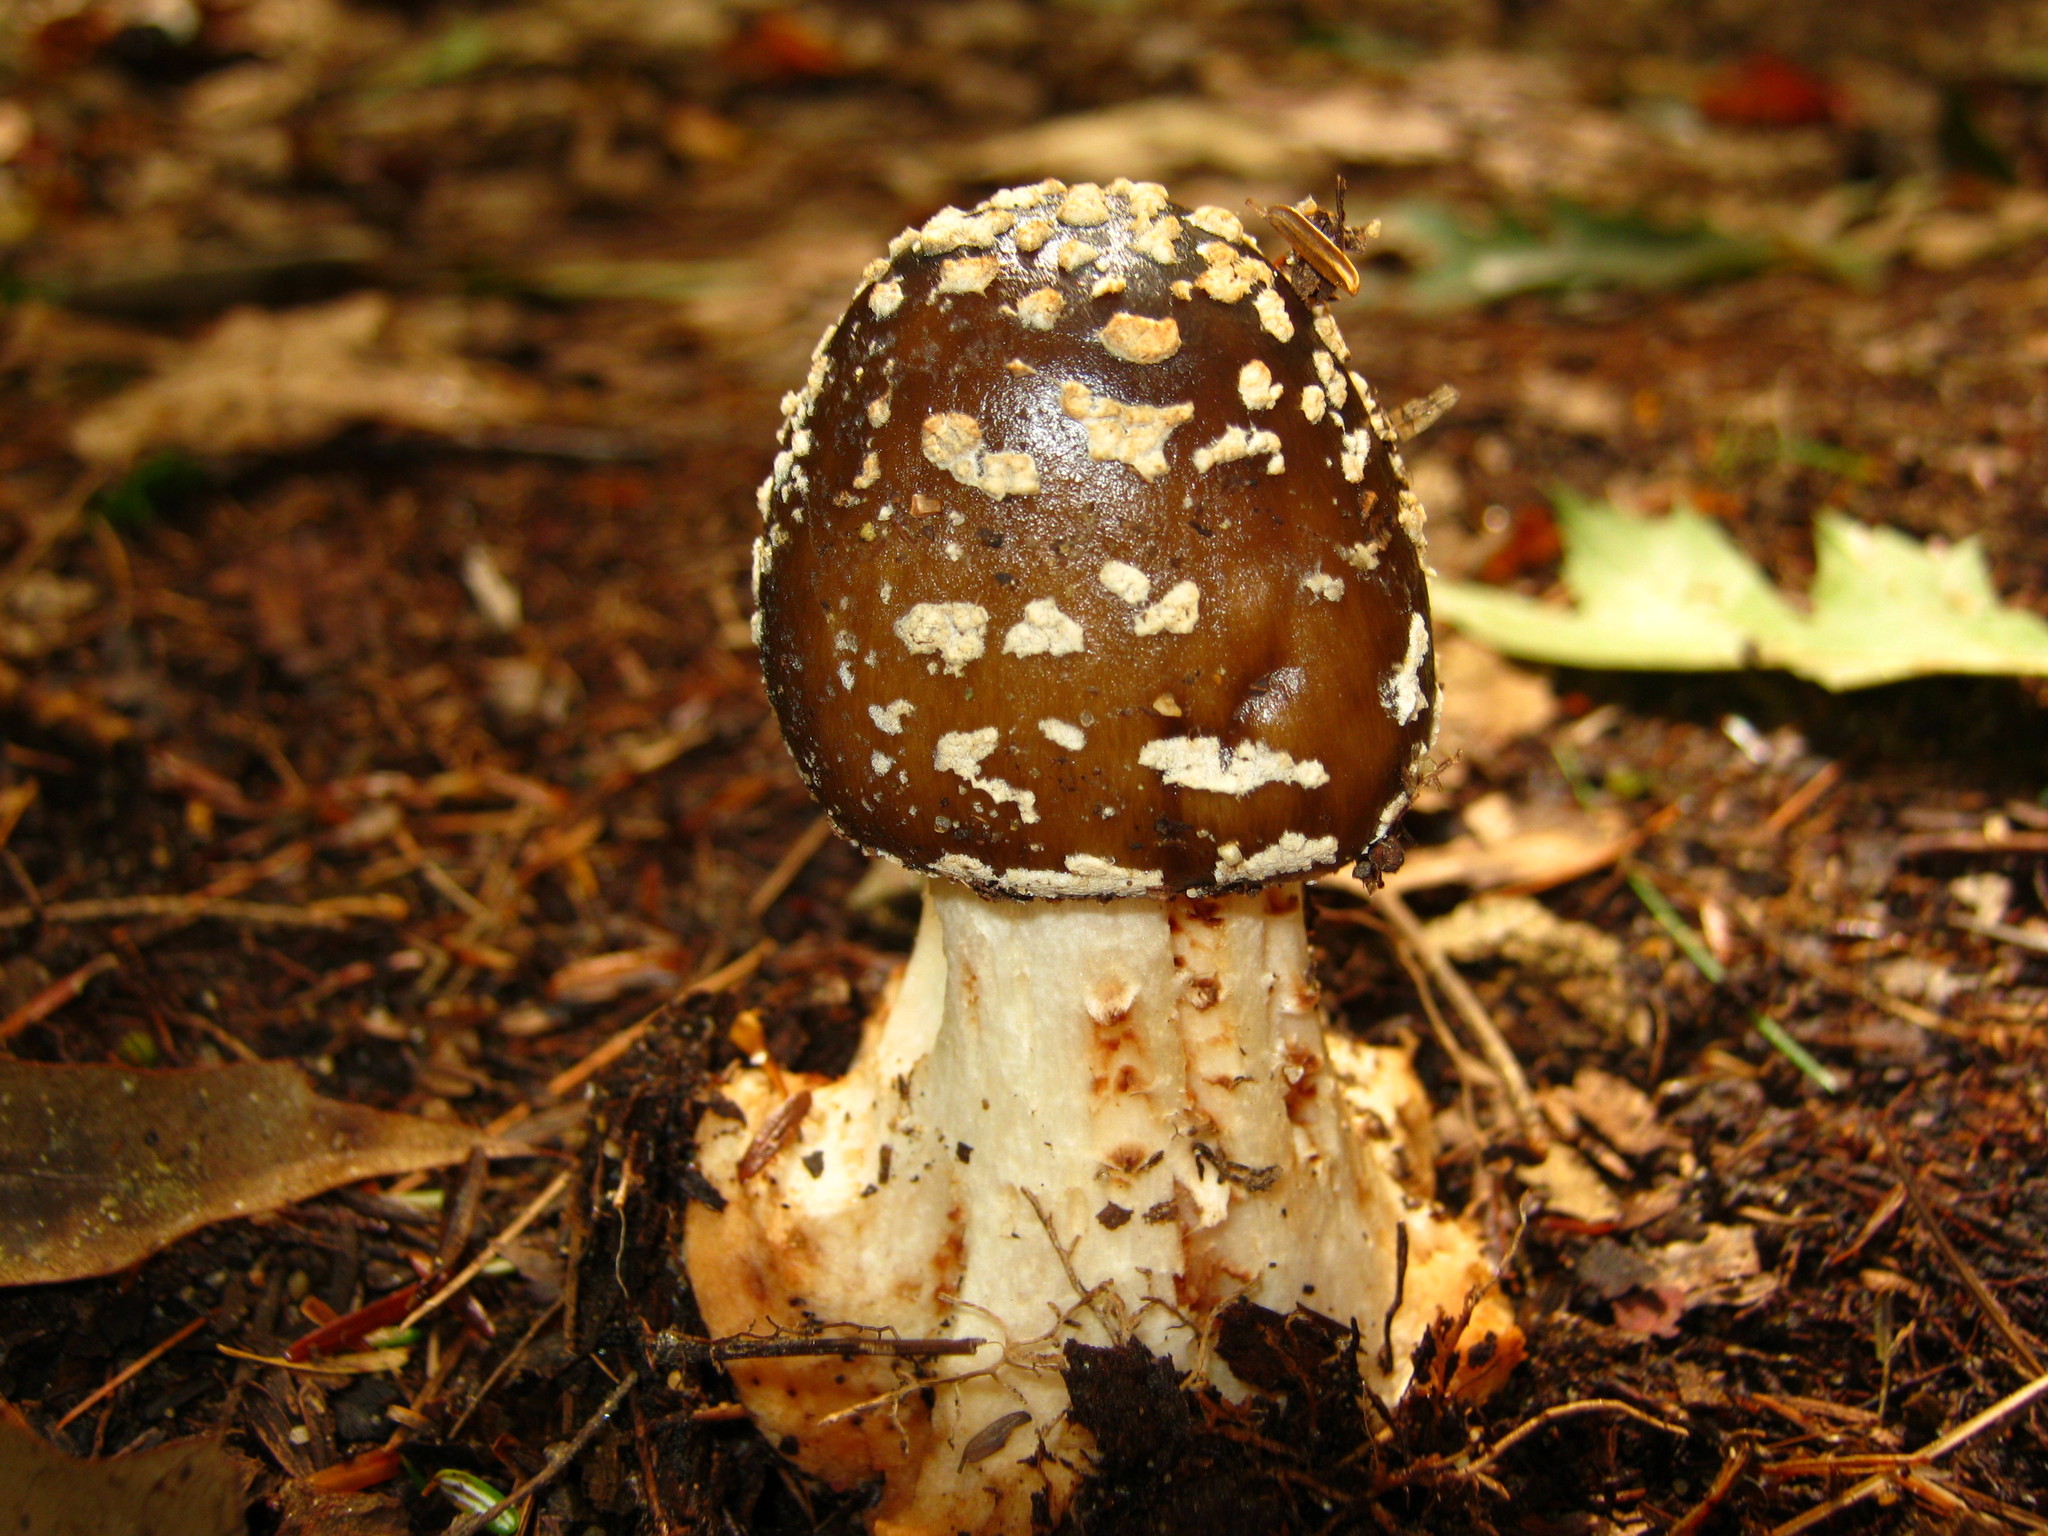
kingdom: Fungi
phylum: Basidiomycota
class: Agaricomycetes
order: Agaricales
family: Amanitaceae
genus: Amanita
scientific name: Amanita brunnescens
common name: Brown american star-footed amanita
